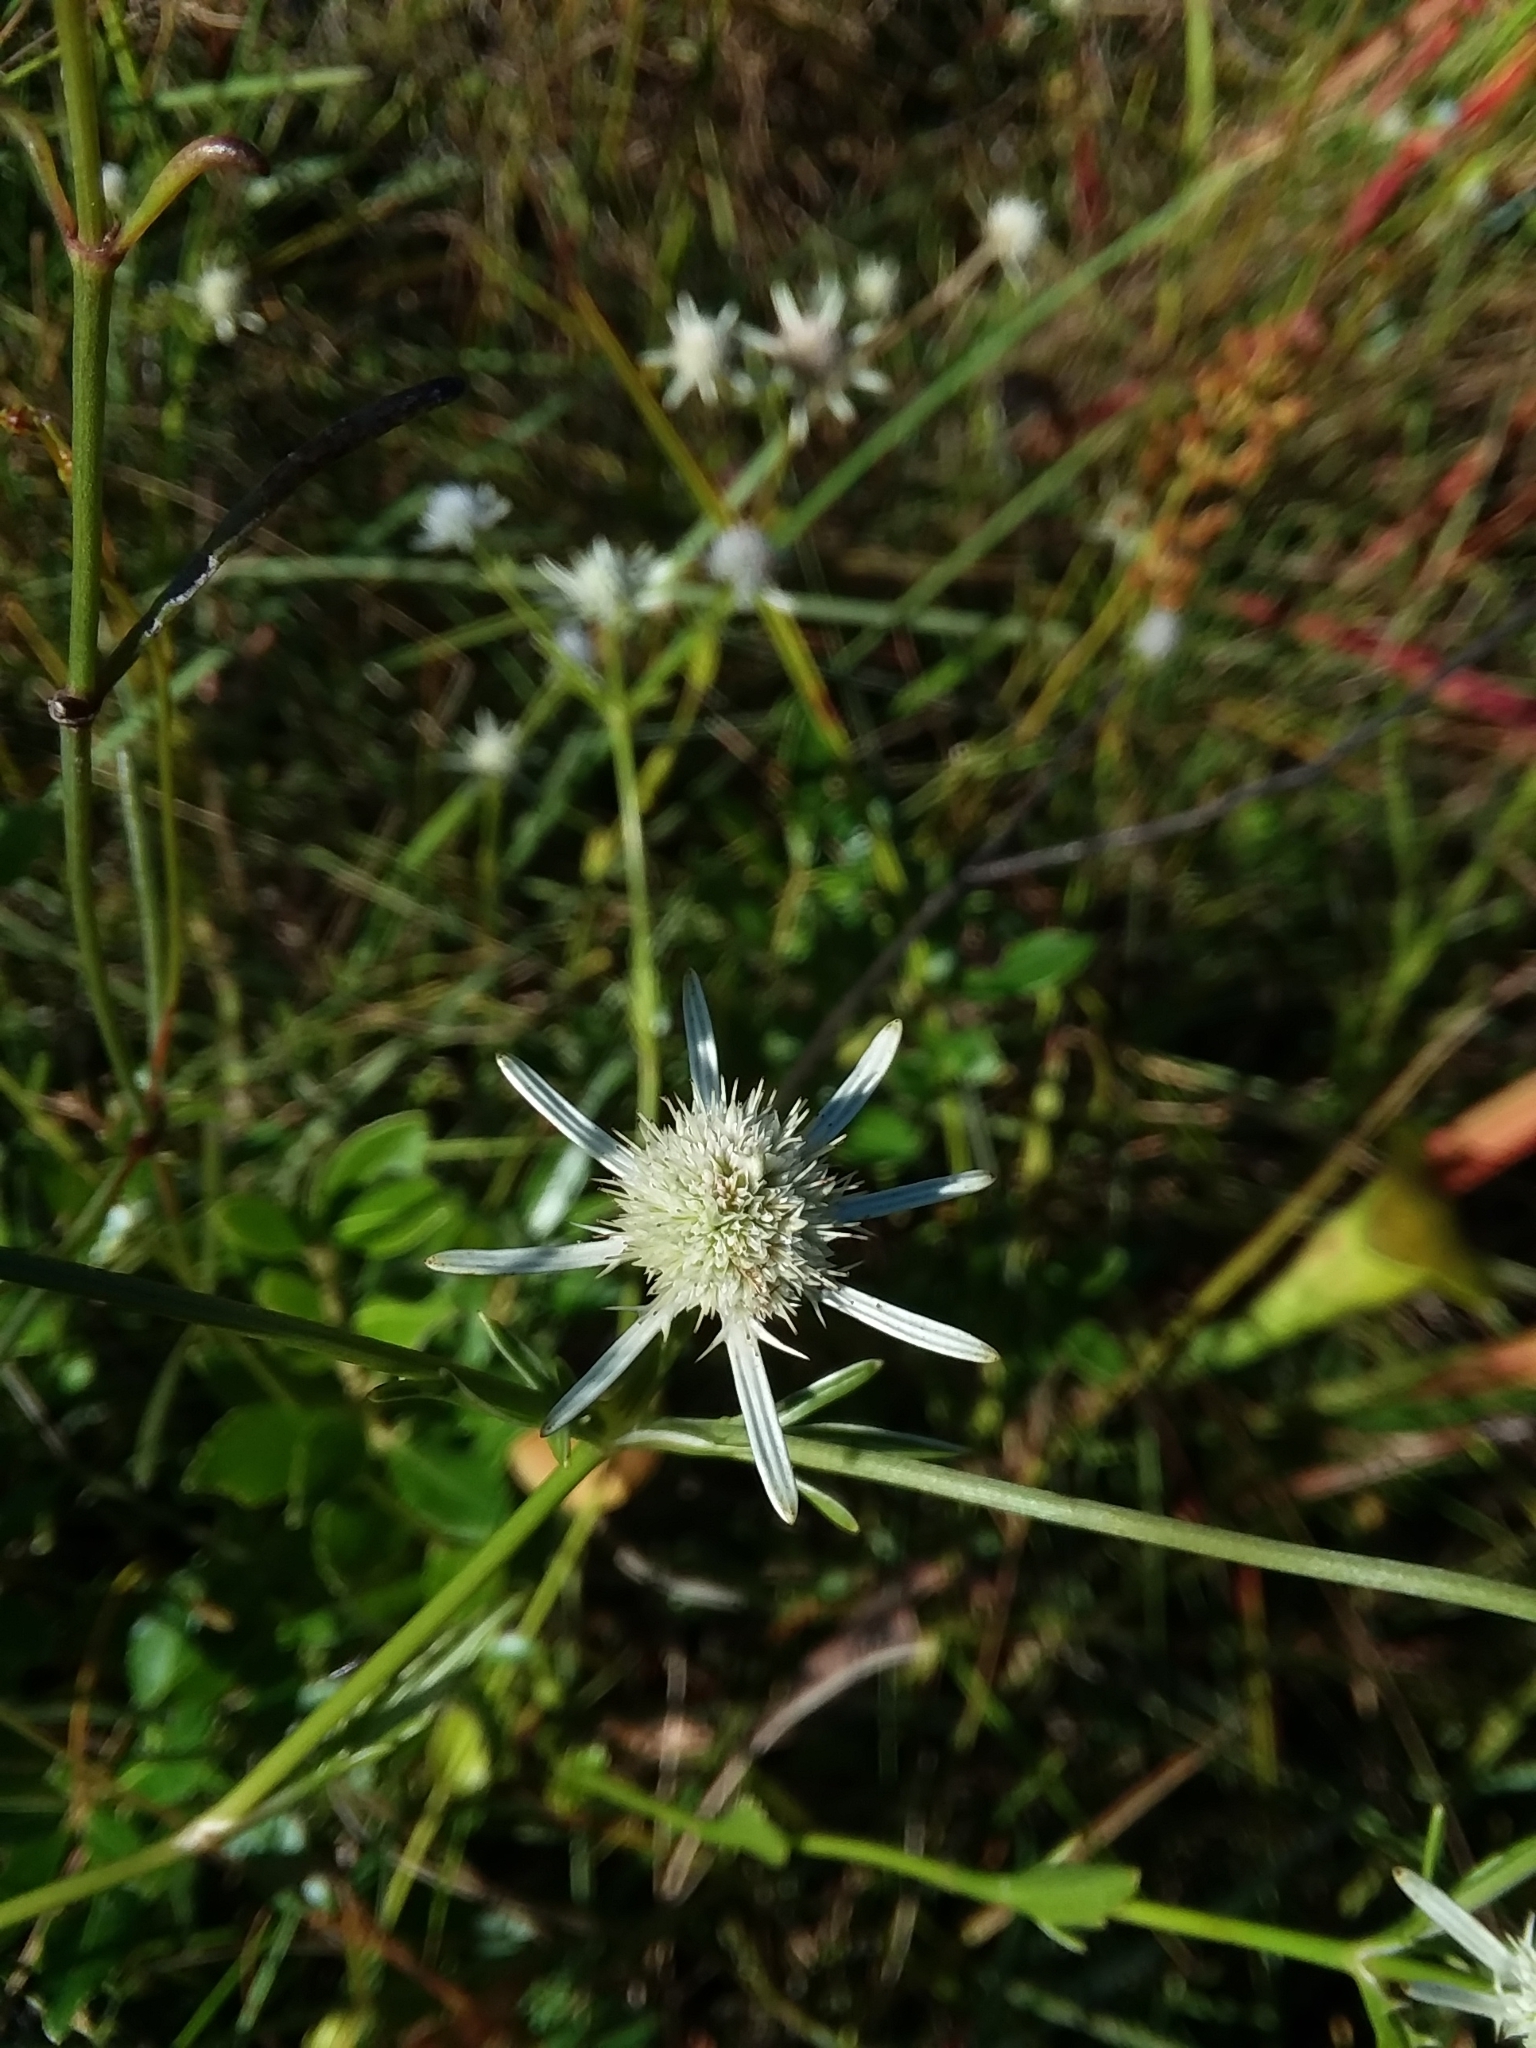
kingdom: Plantae
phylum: Tracheophyta
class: Magnoliopsida
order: Apiales
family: Apiaceae
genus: Eryngium
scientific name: Eryngium integrifolium
